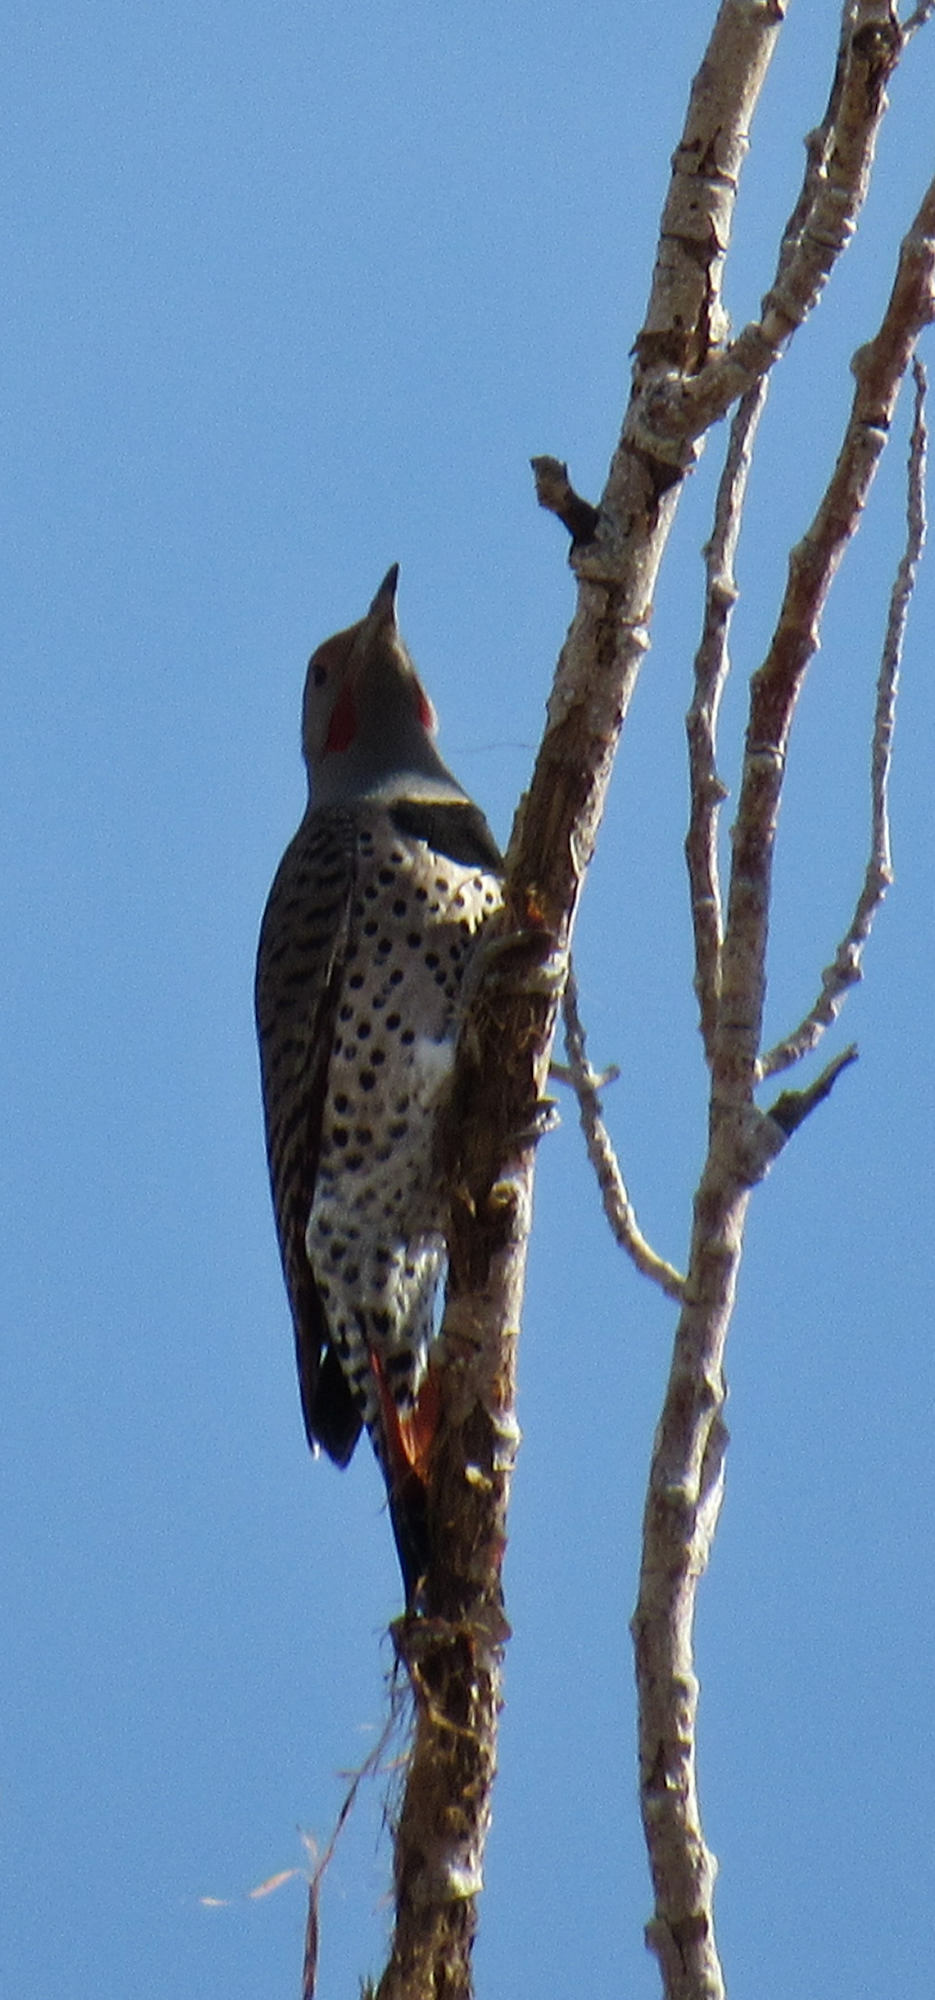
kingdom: Animalia
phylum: Chordata
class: Aves
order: Piciformes
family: Picidae
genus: Colaptes
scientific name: Colaptes auratus
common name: Northern flicker
